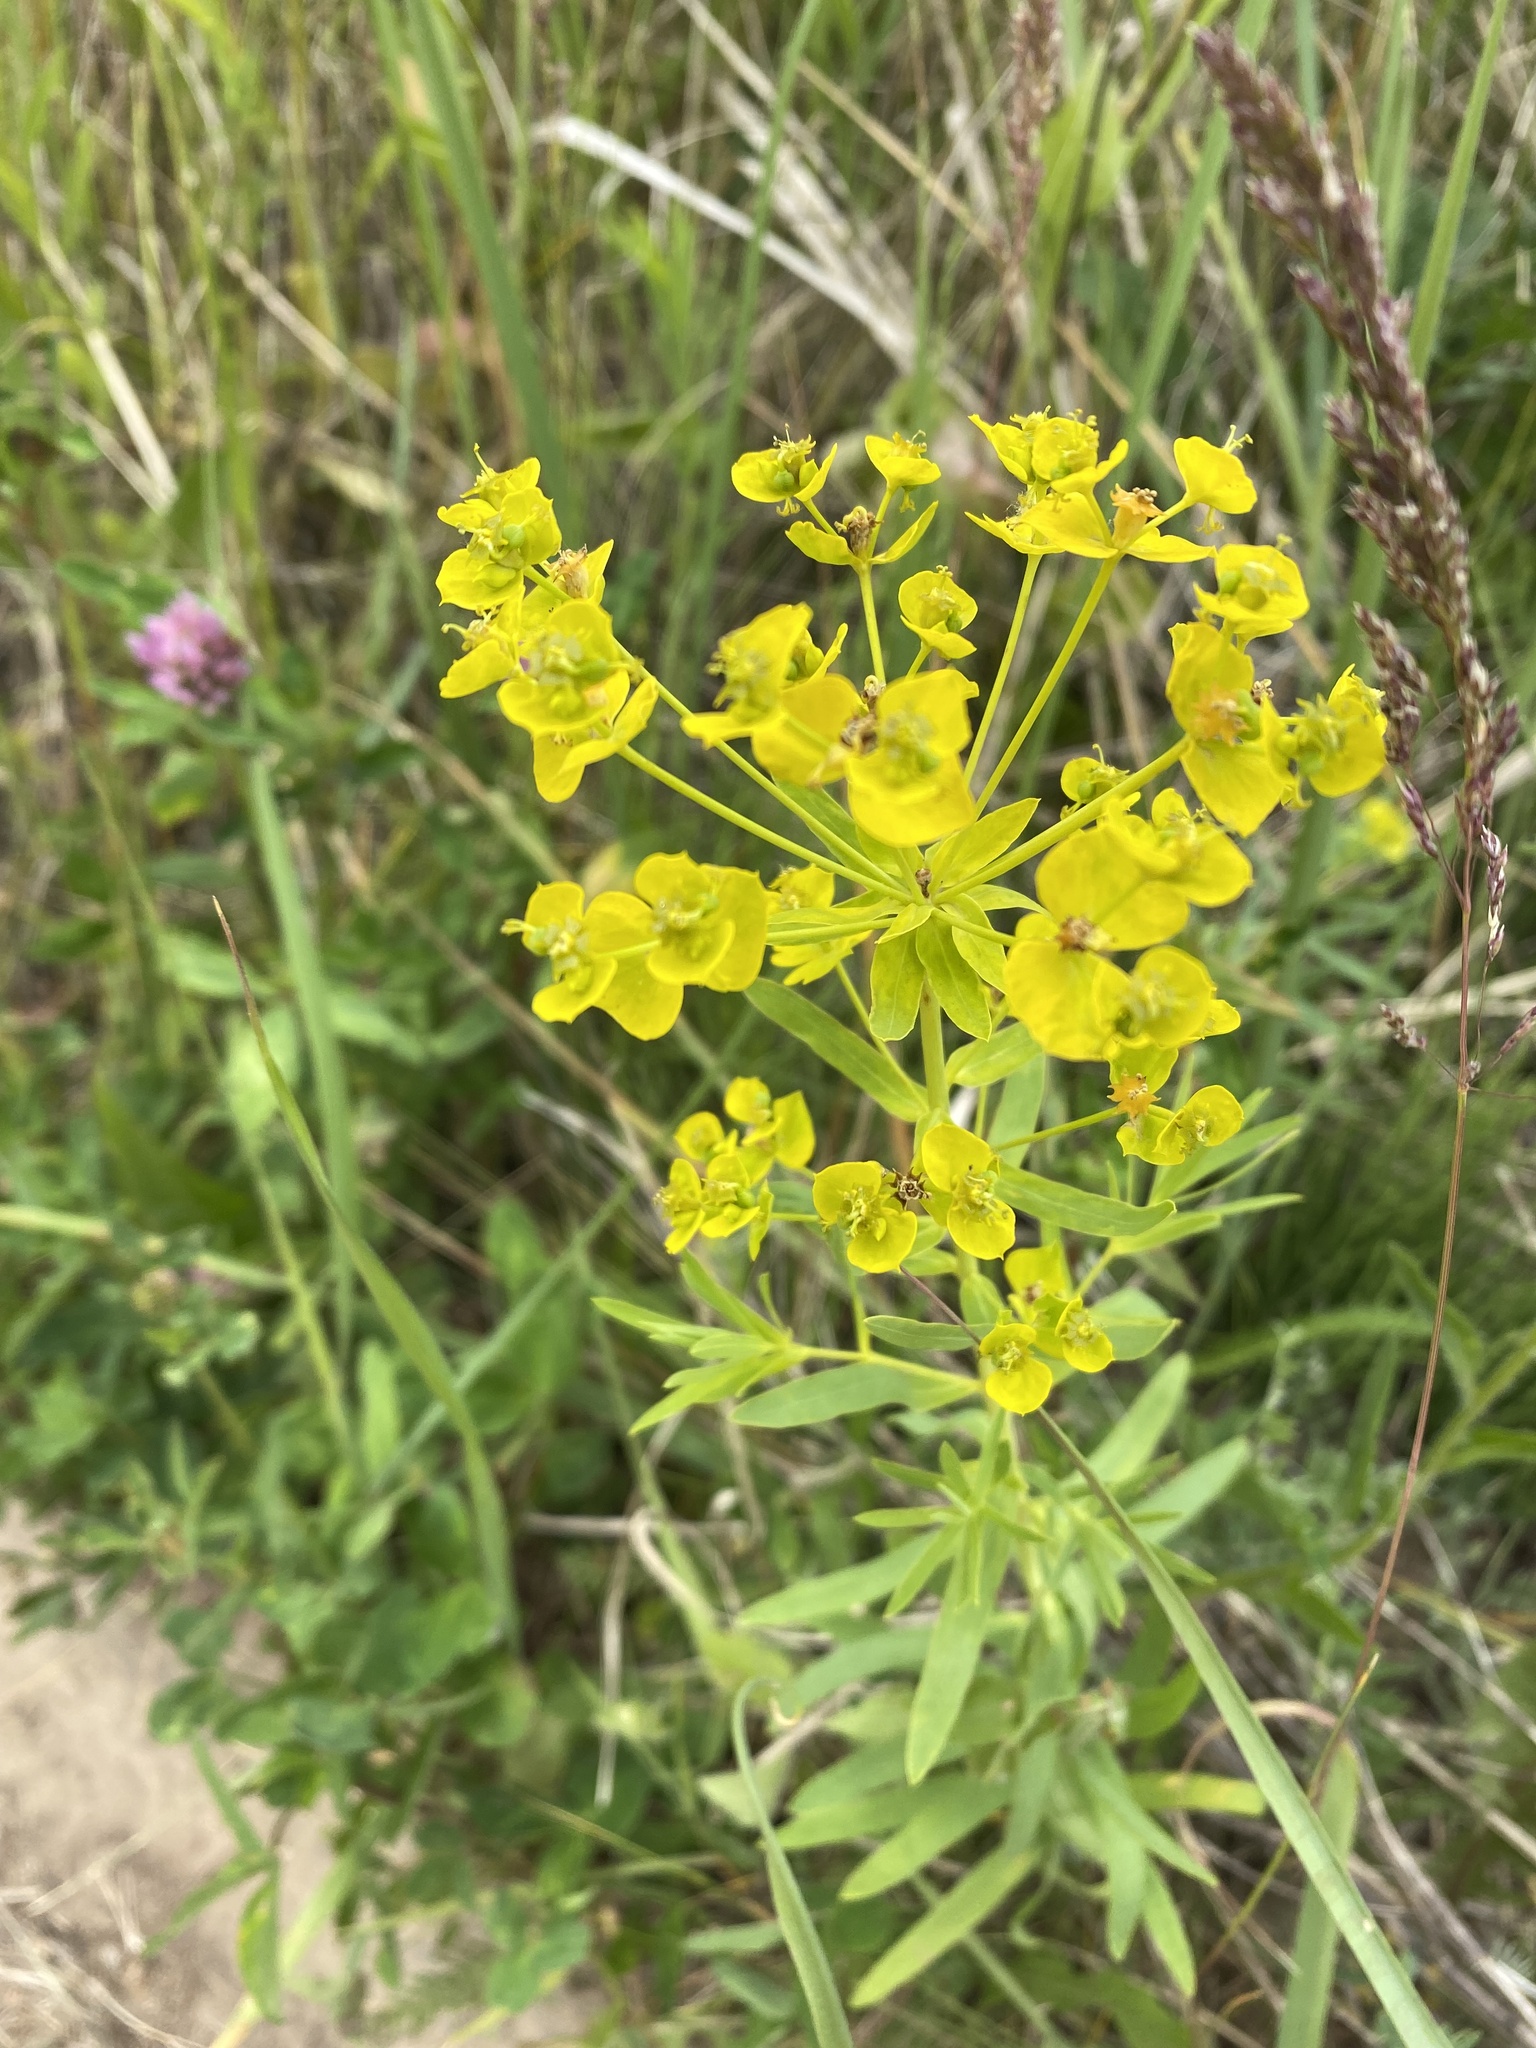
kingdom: Plantae
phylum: Tracheophyta
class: Magnoliopsida
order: Malpighiales
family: Euphorbiaceae
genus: Euphorbia
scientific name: Euphorbia virgata
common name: Leafy spurge
